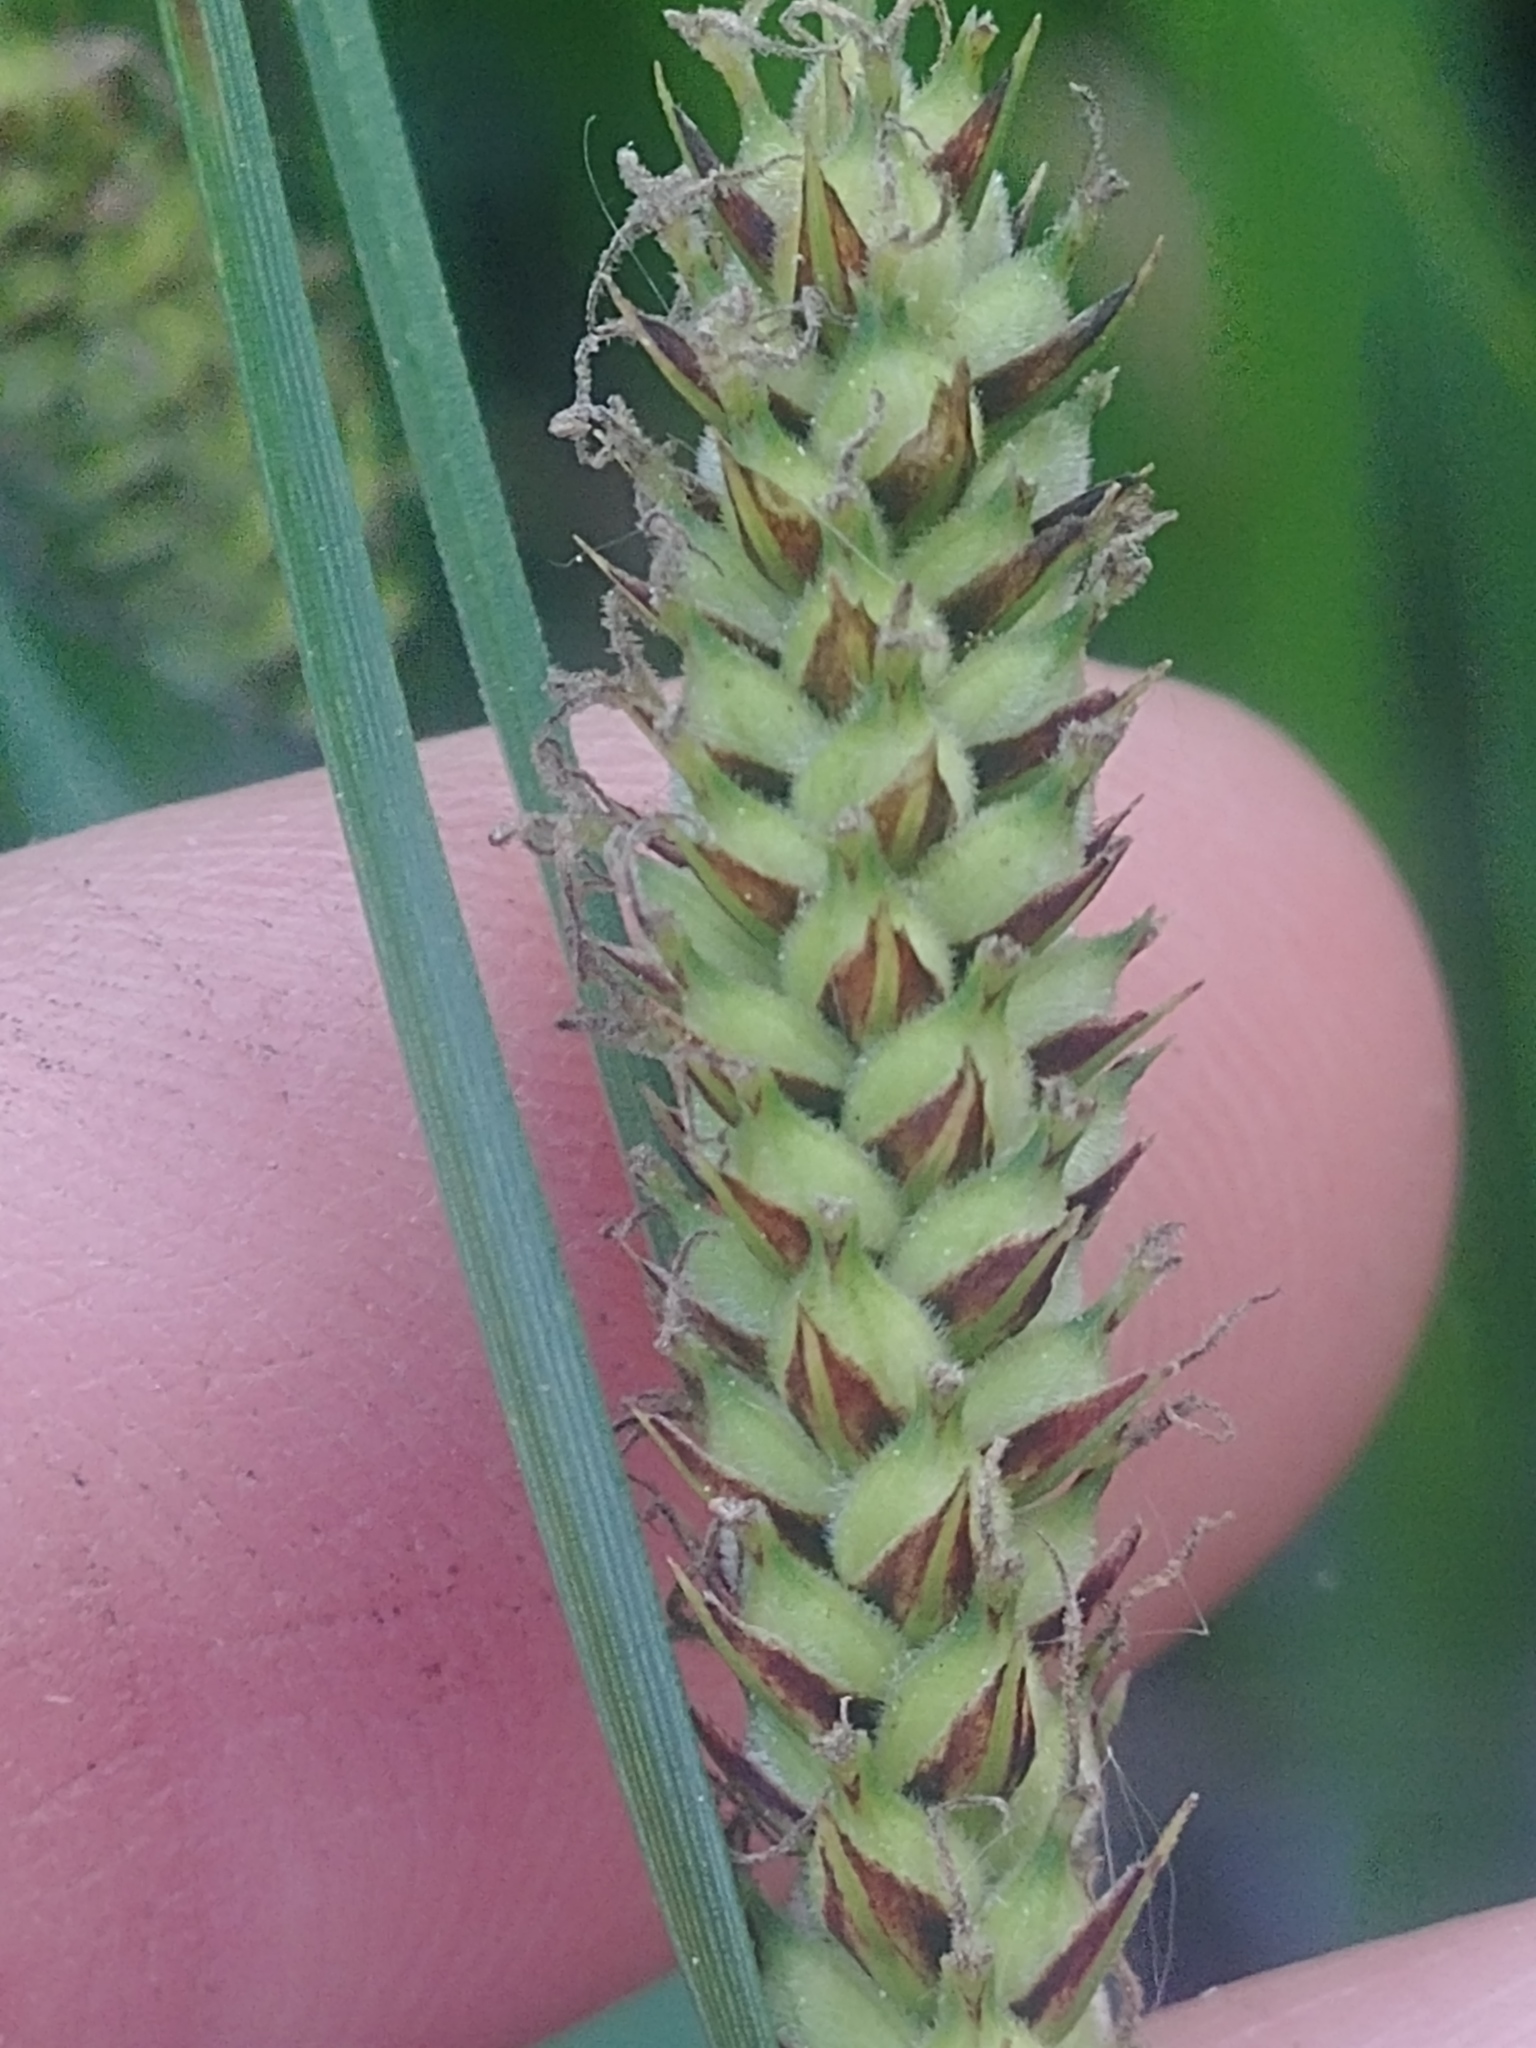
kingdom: Plantae
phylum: Tracheophyta
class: Liliopsida
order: Poales
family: Cyperaceae
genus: Carex
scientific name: Carex pellita
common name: Woolly sedge
